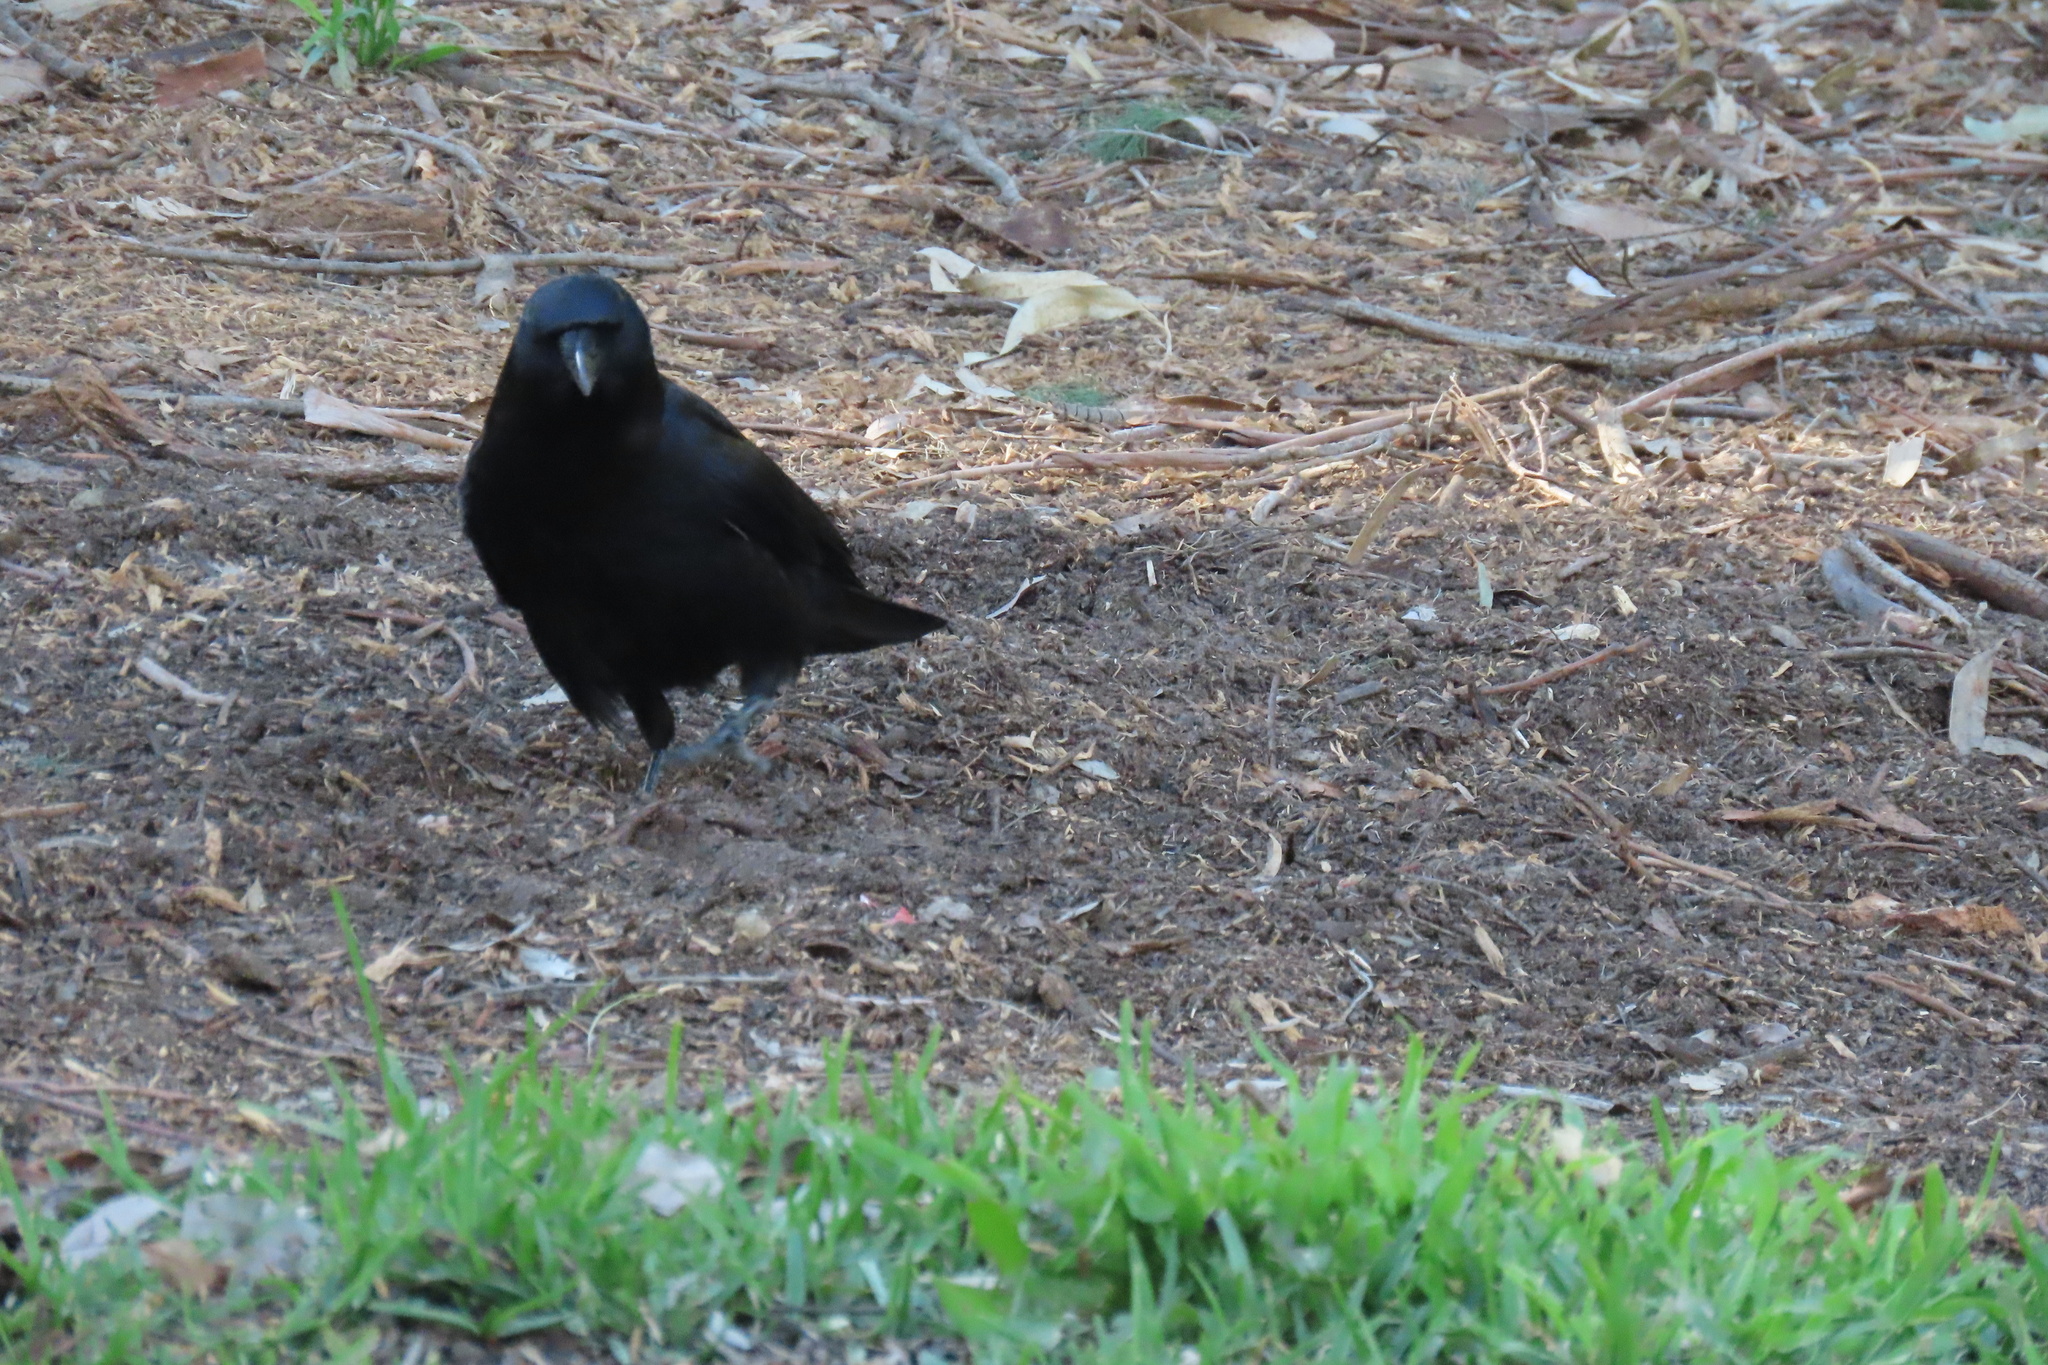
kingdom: Animalia
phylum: Chordata
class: Aves
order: Passeriformes
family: Corvidae
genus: Corvus
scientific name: Corvus brachyrhynchos
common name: American crow
